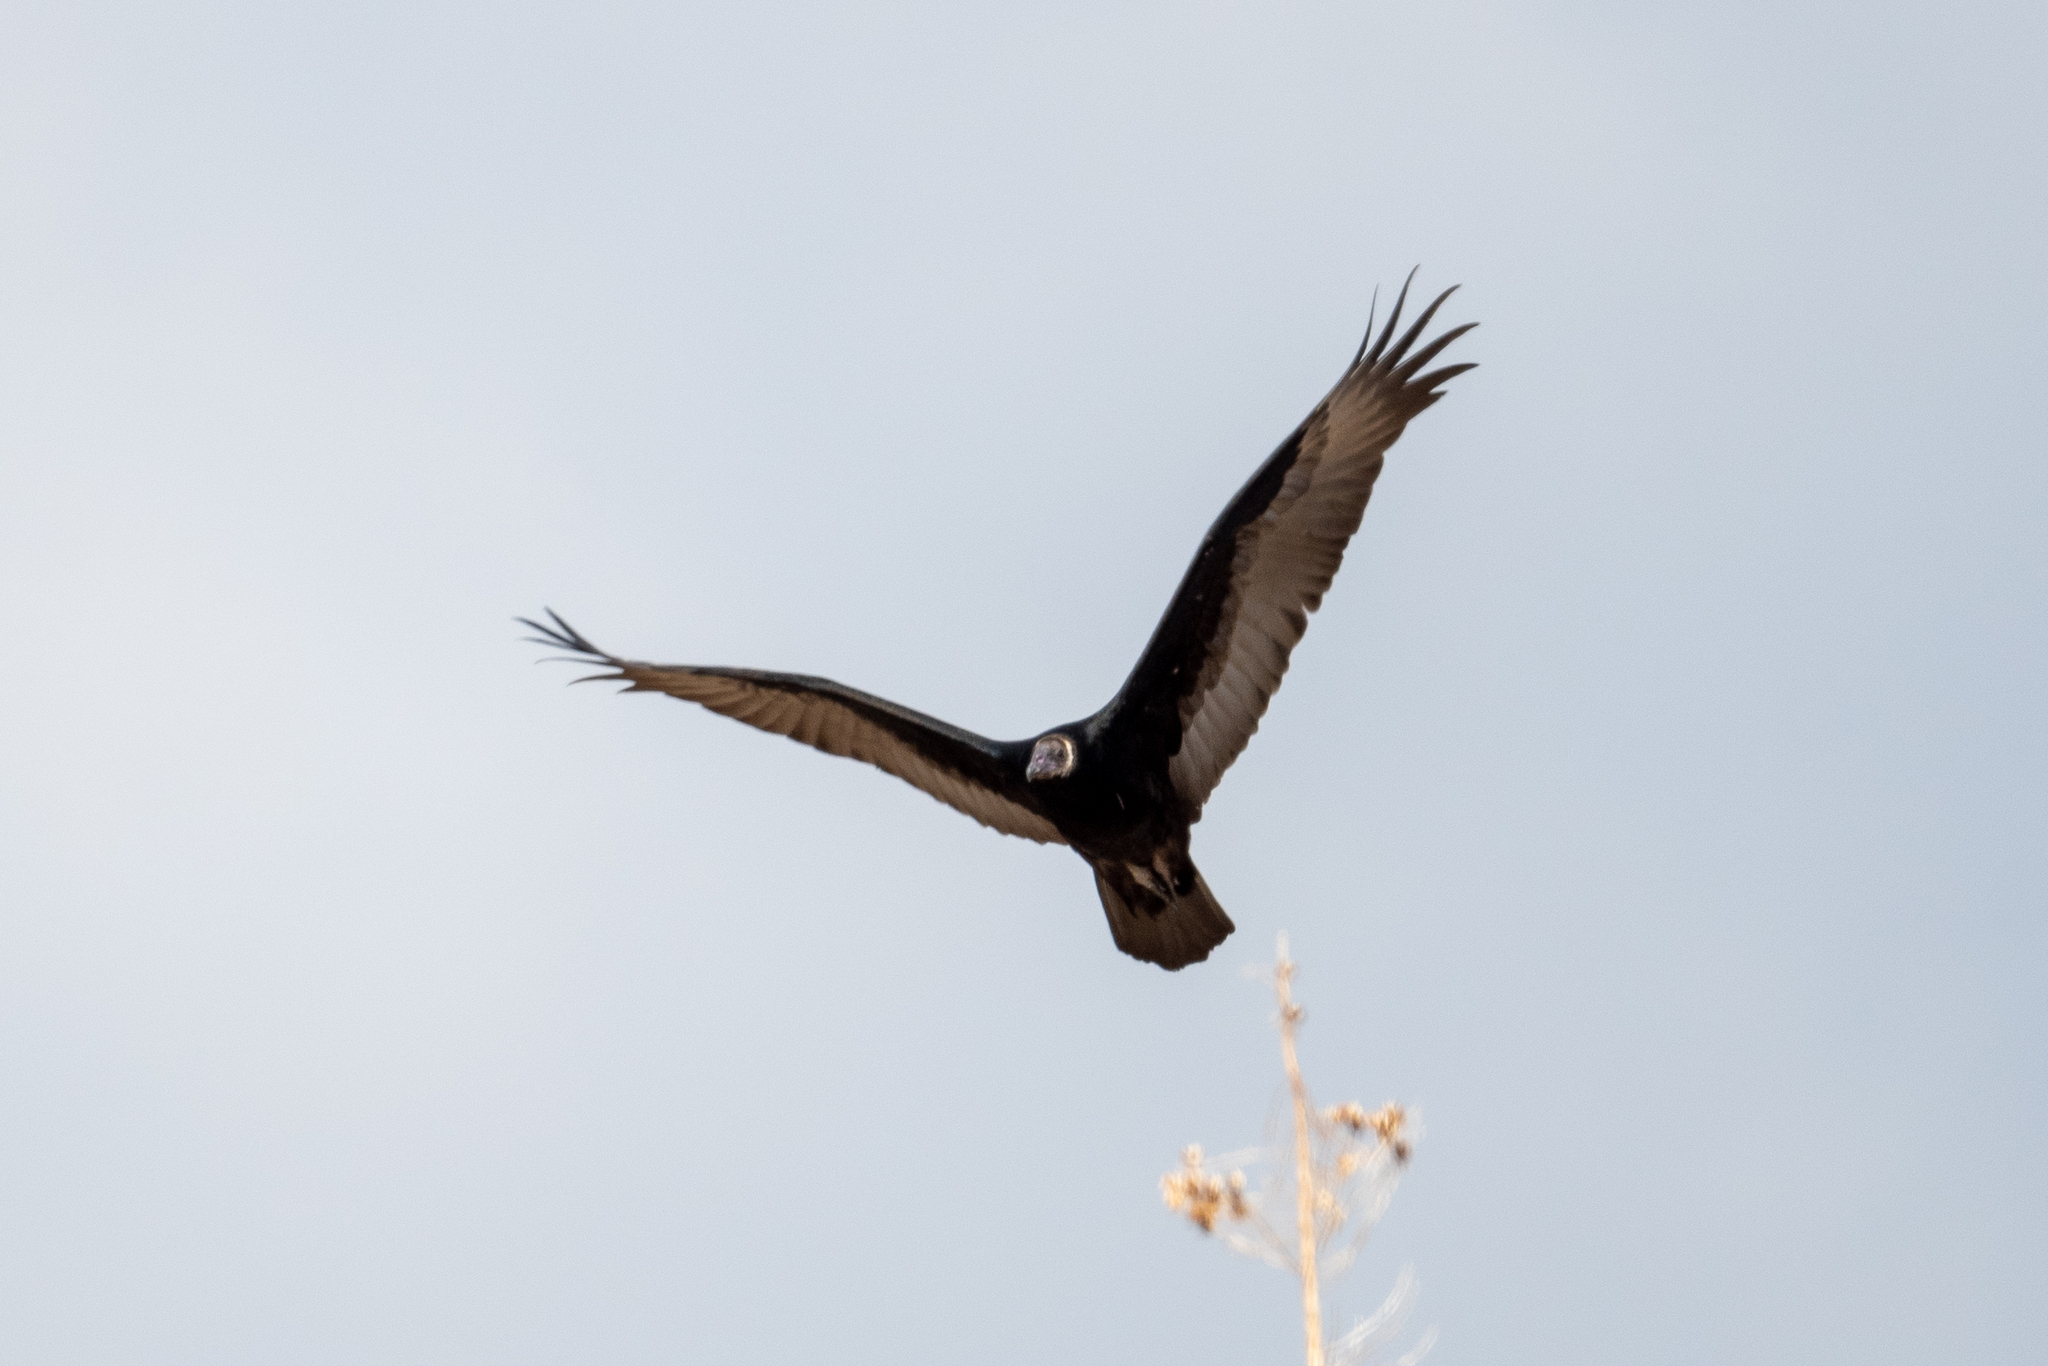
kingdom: Animalia
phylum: Chordata
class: Aves
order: Accipitriformes
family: Cathartidae
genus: Cathartes
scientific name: Cathartes aura
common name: Turkey vulture
